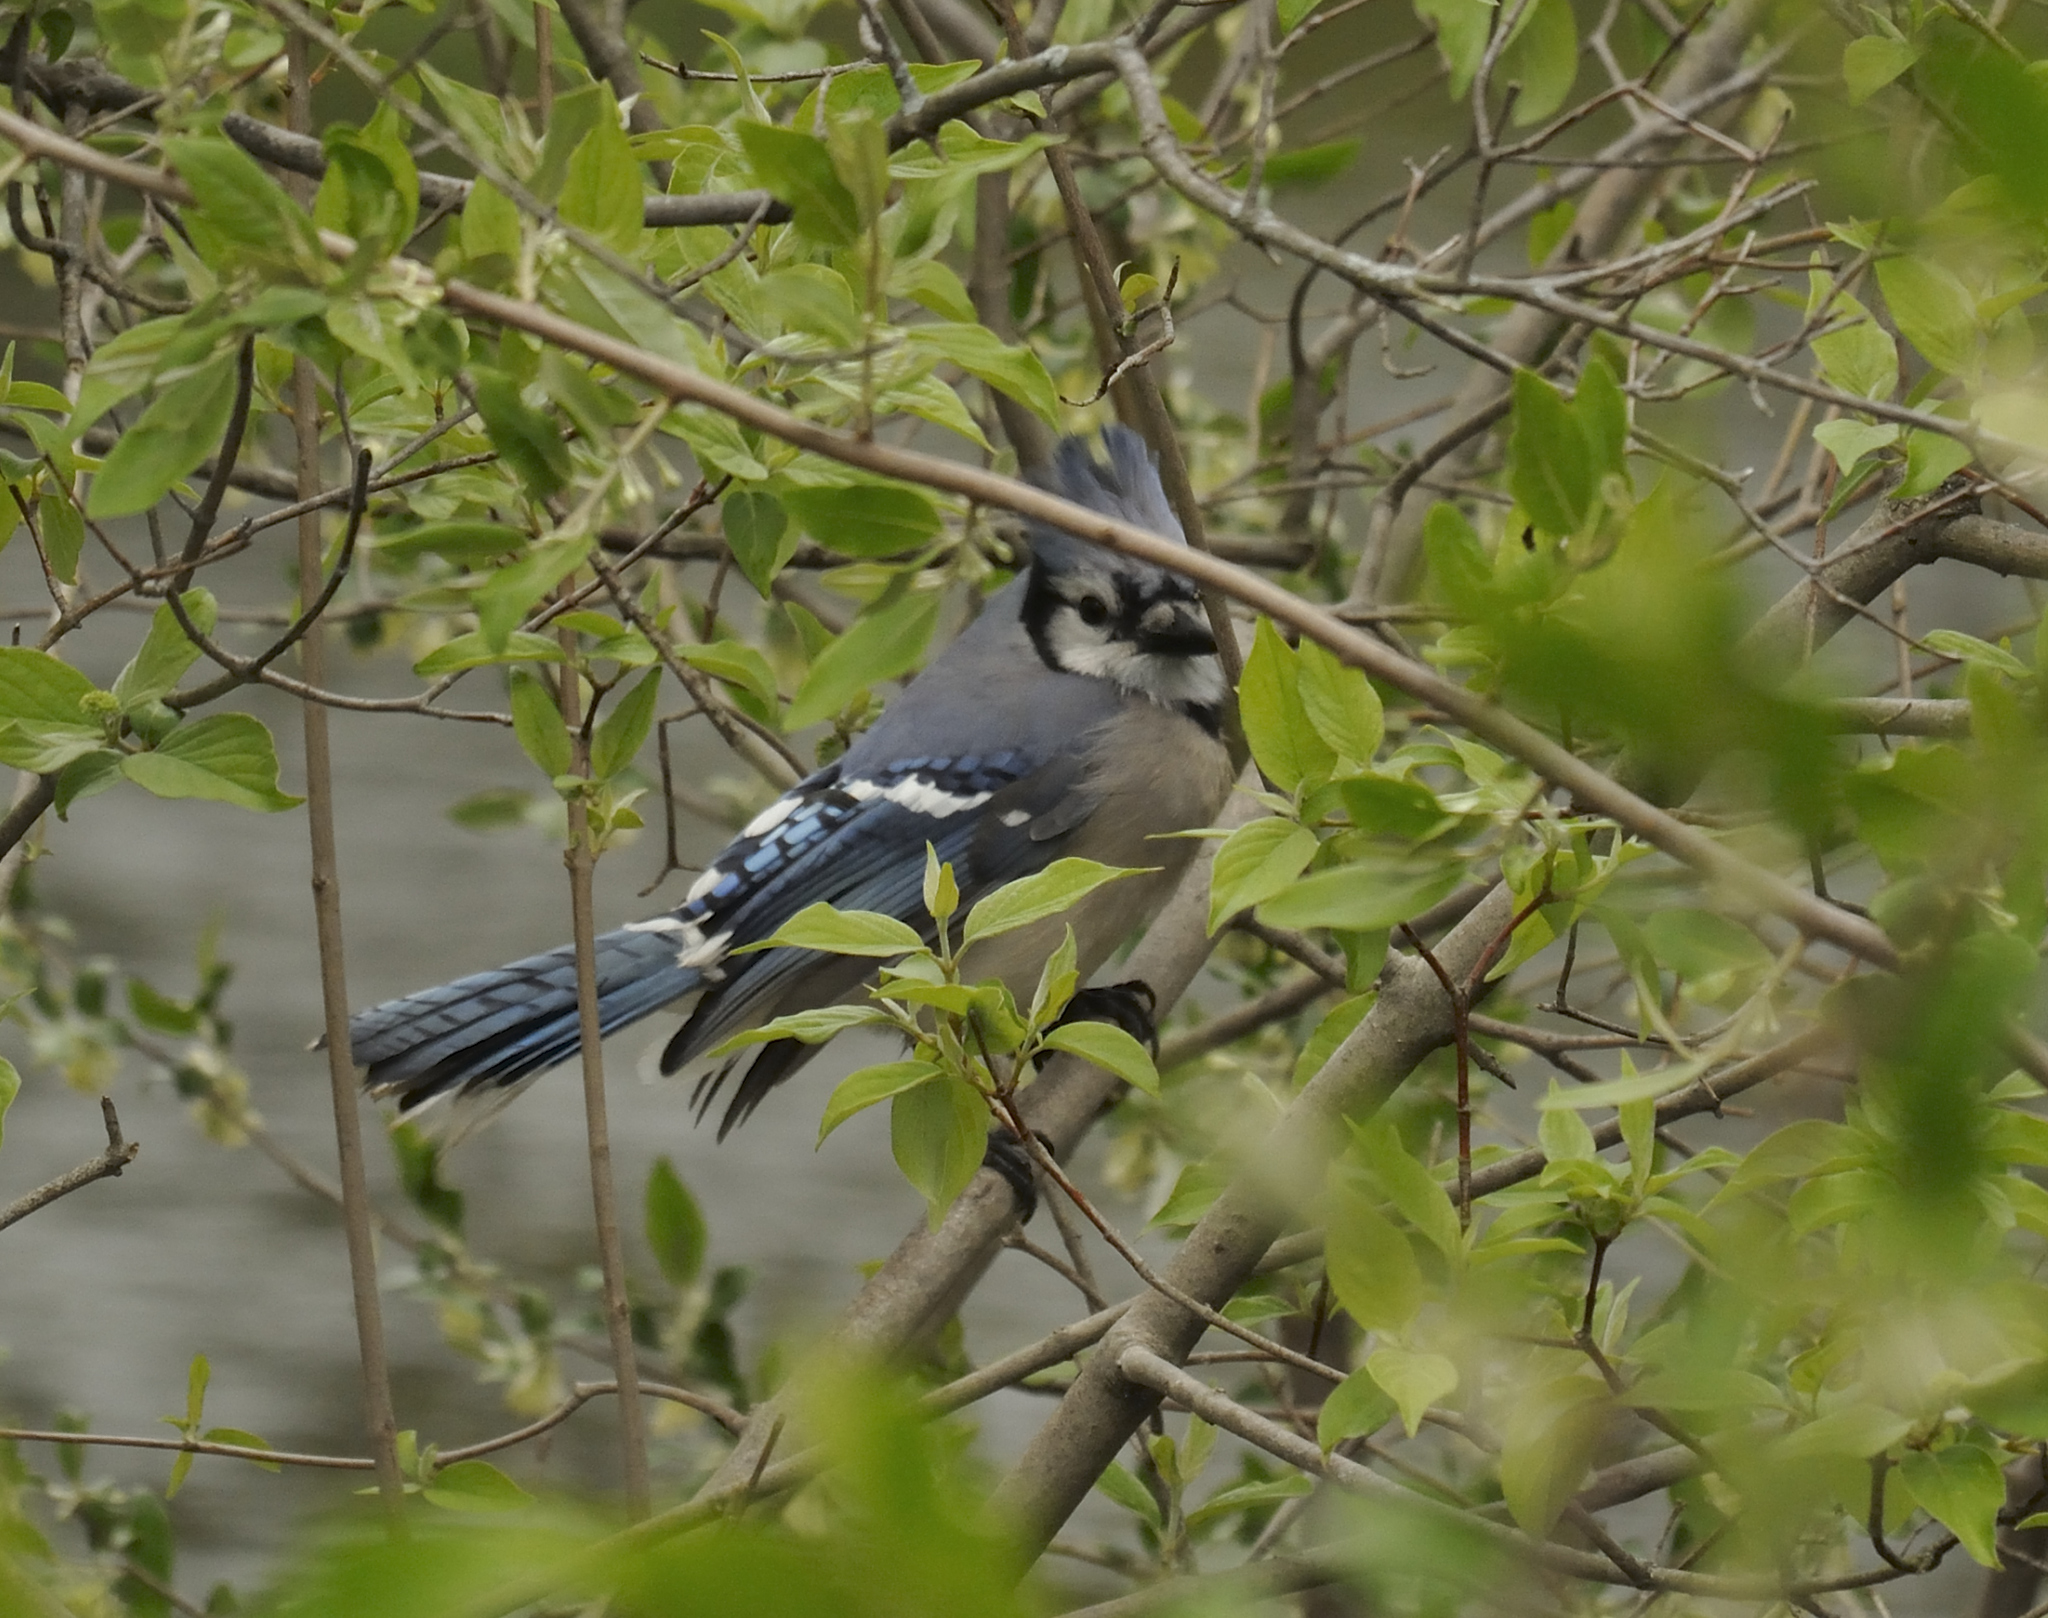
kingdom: Animalia
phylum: Chordata
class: Aves
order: Passeriformes
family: Corvidae
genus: Cyanocitta
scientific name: Cyanocitta cristata
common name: Blue jay
